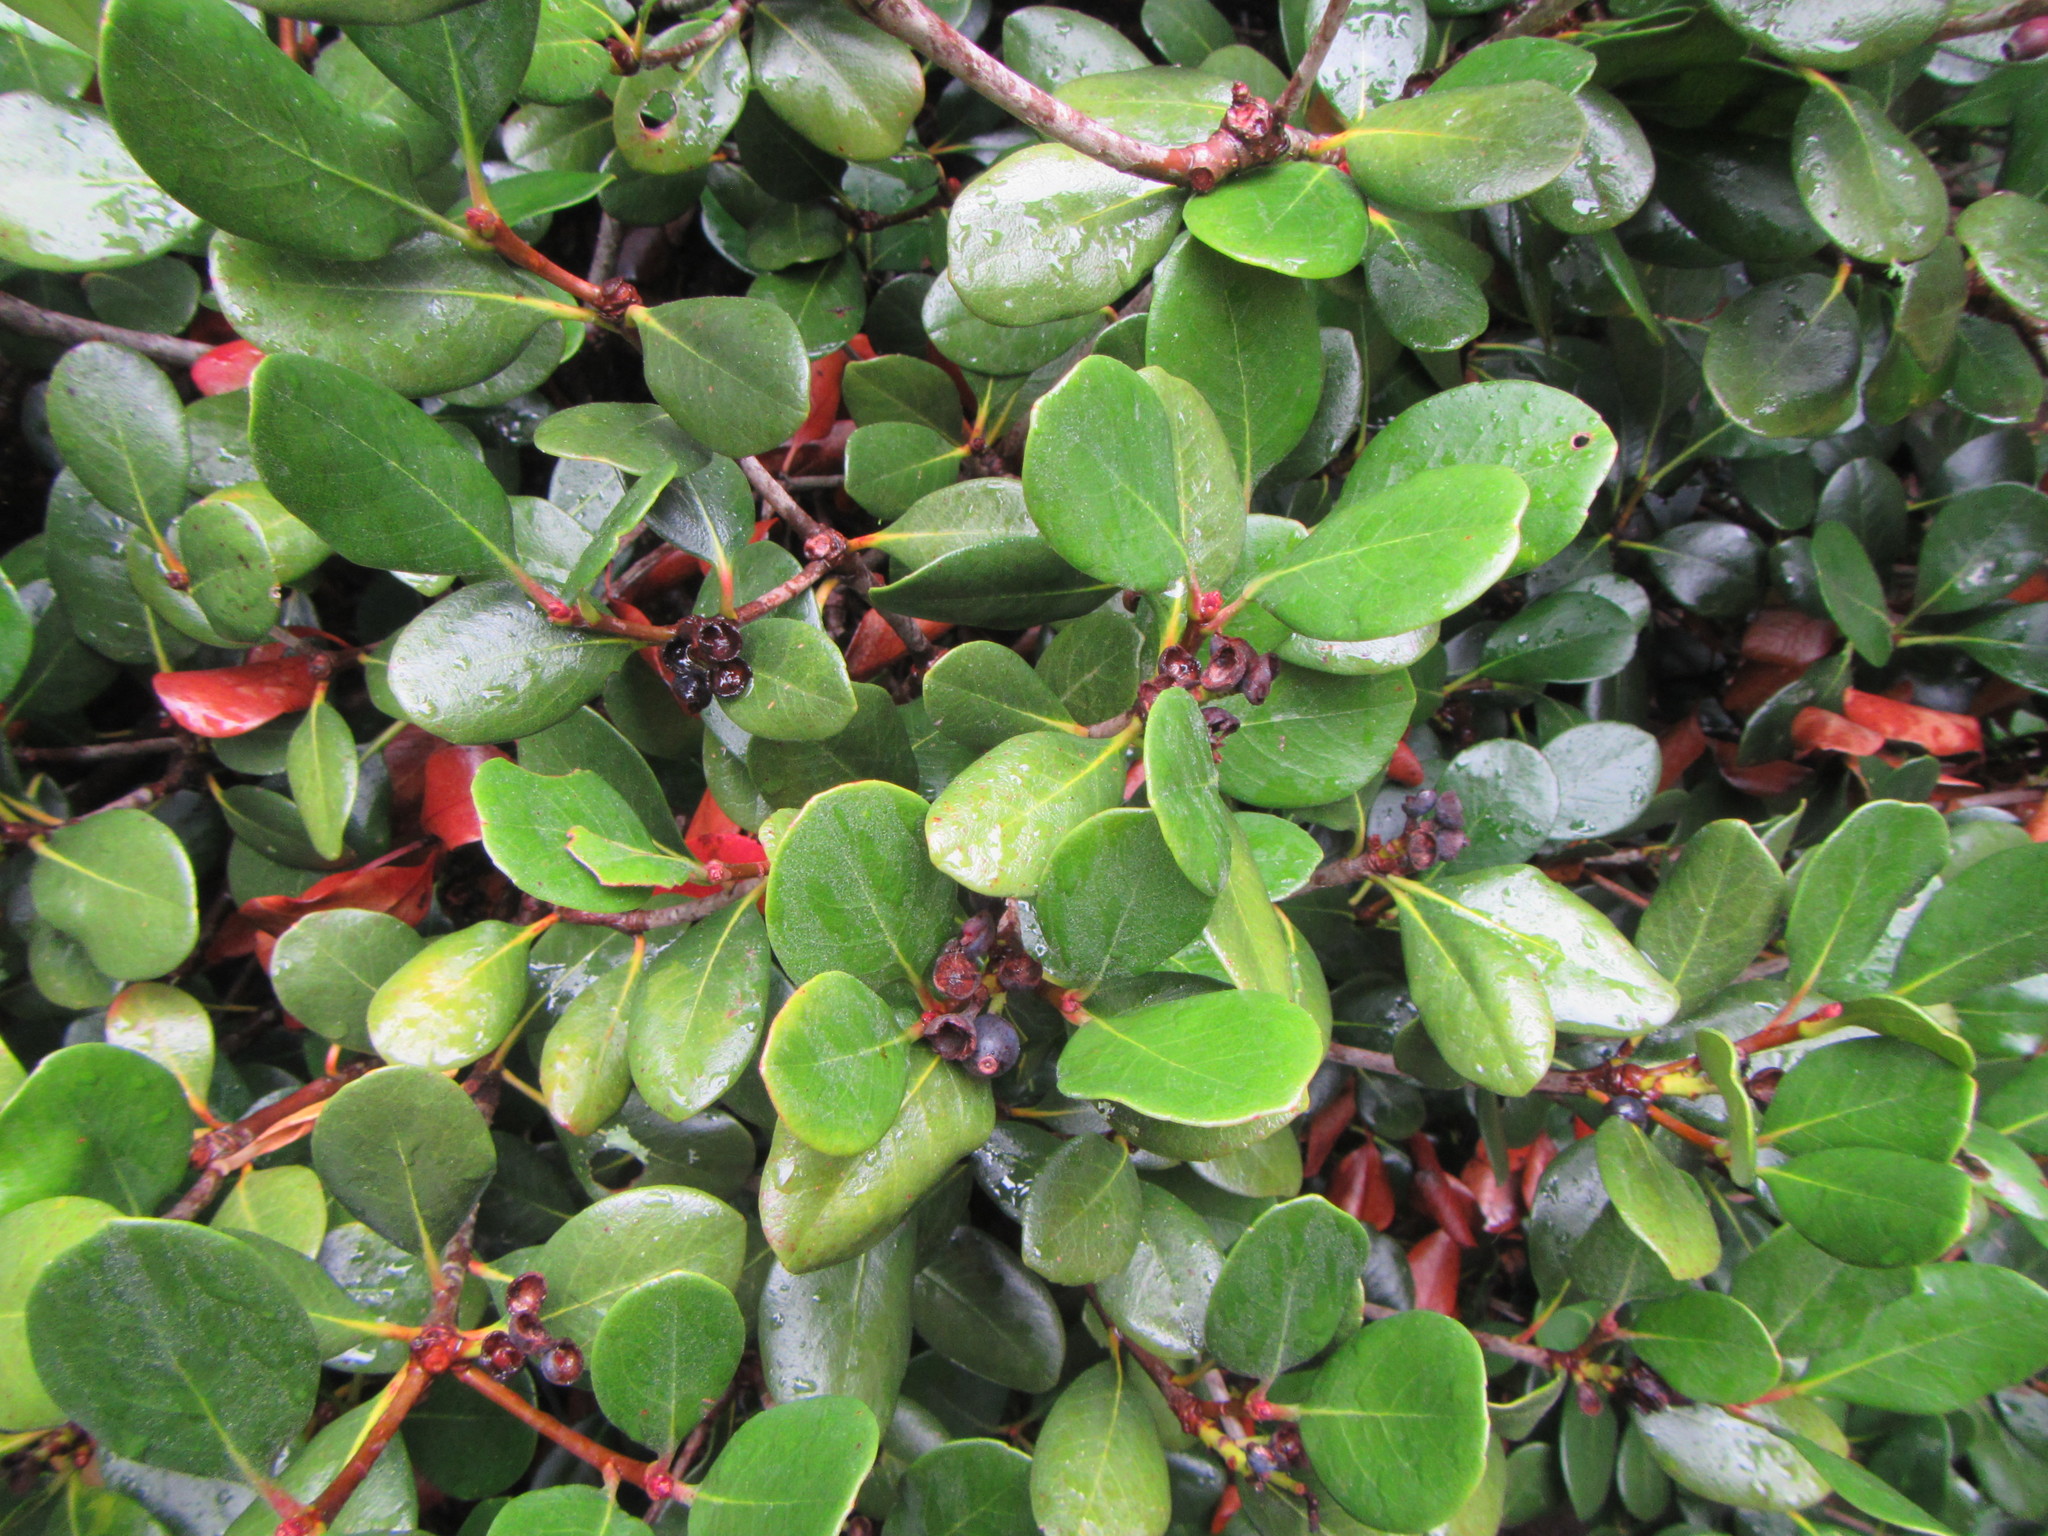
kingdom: Plantae
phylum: Tracheophyta
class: Magnoliopsida
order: Rosales
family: Rosaceae
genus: Rhaphiolepis
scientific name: Rhaphiolepis indica
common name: India-hawthorn
